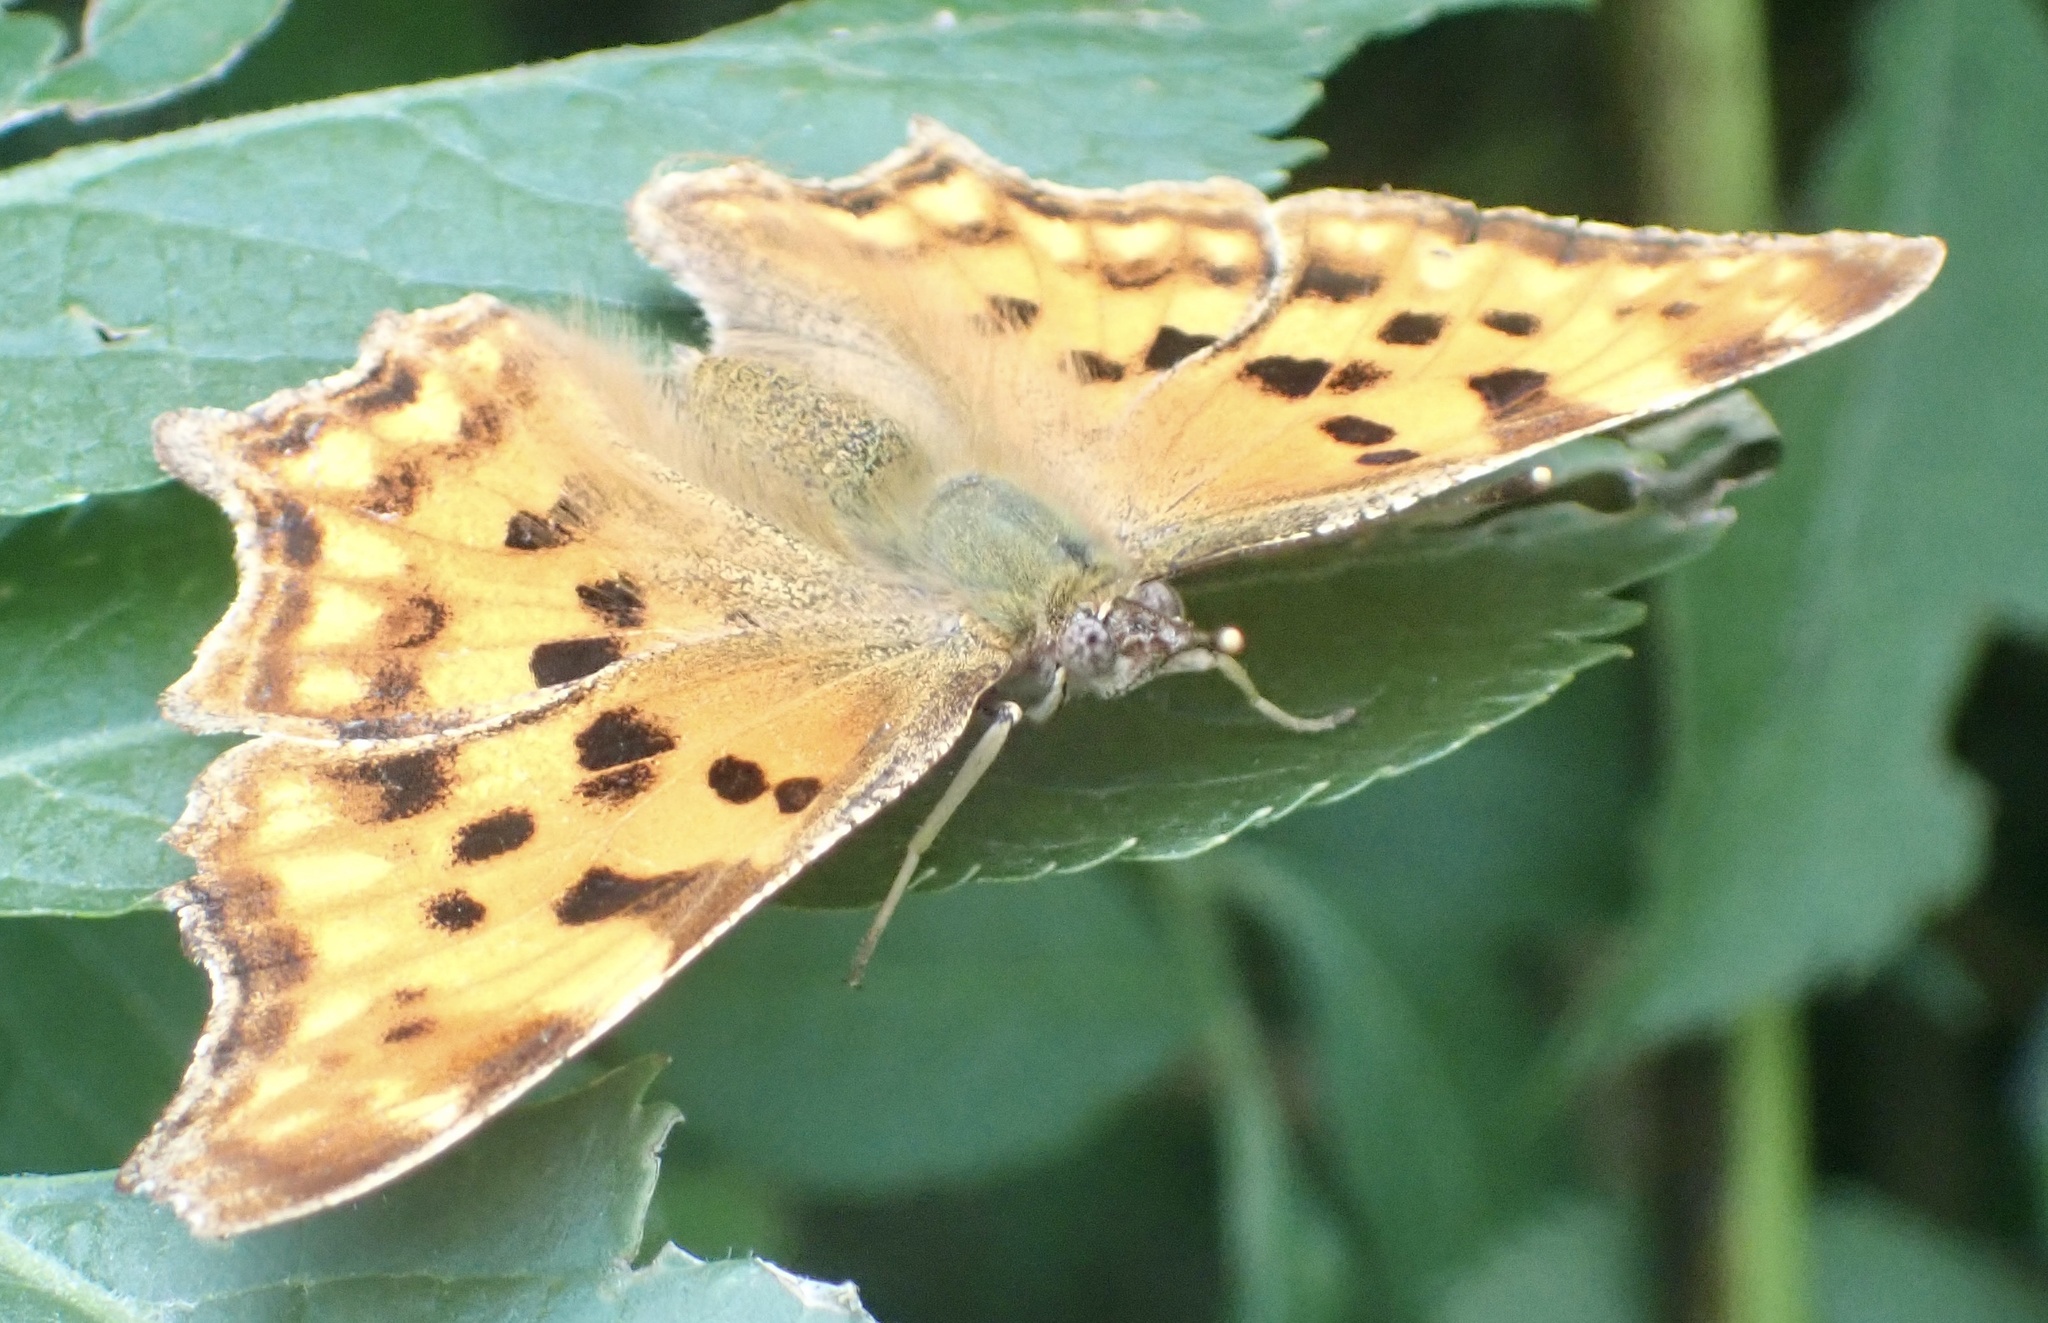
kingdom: Animalia
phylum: Arthropoda
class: Insecta
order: Lepidoptera
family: Nymphalidae
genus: Polygonia
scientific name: Polygonia c-album
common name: Comma
